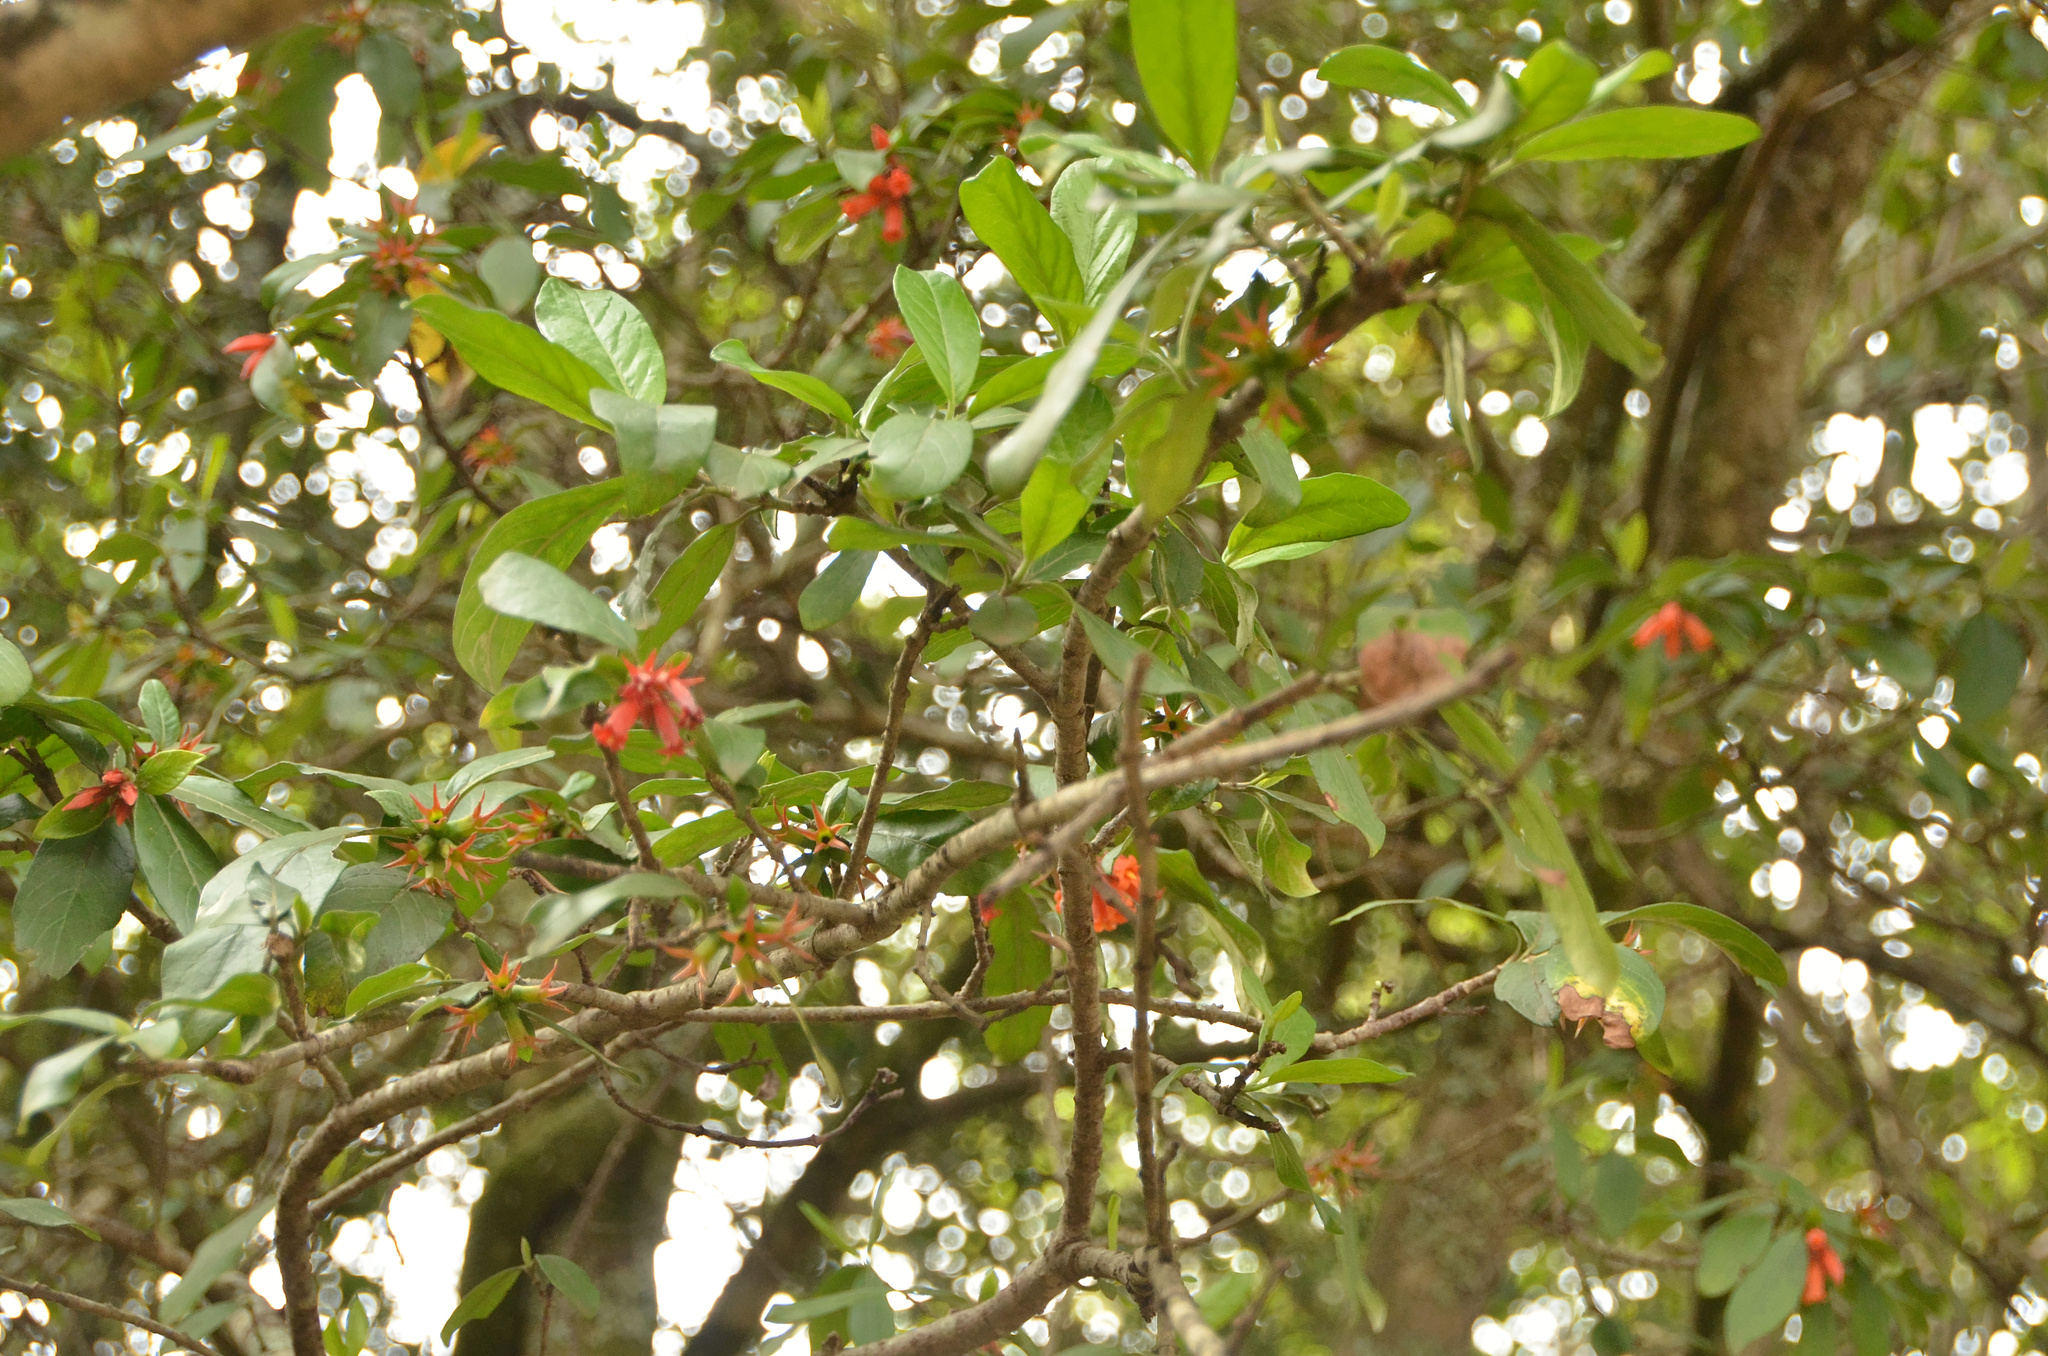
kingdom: Plantae
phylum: Tracheophyta
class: Magnoliopsida
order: Gentianales
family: Rubiaceae
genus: Burchellia
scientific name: Burchellia bubalina
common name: Wild pomegranate
